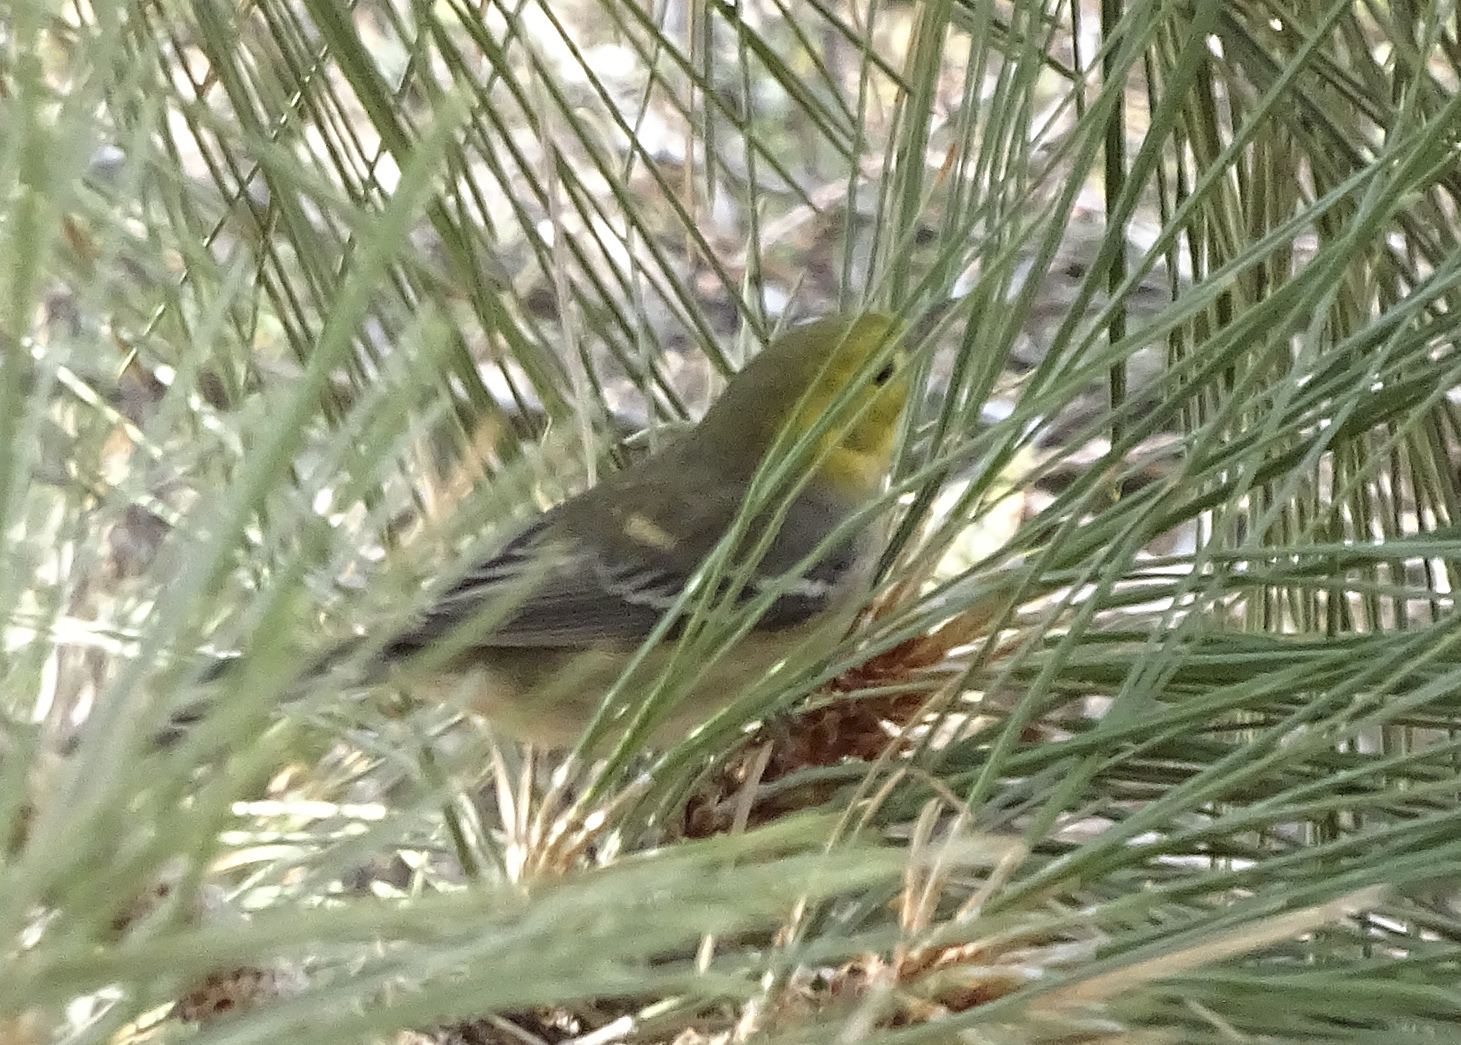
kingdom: Animalia
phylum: Chordata
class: Aves
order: Passeriformes
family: Parulidae
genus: Setophaga
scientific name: Setophaga occidentalis
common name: Hermit warbler
